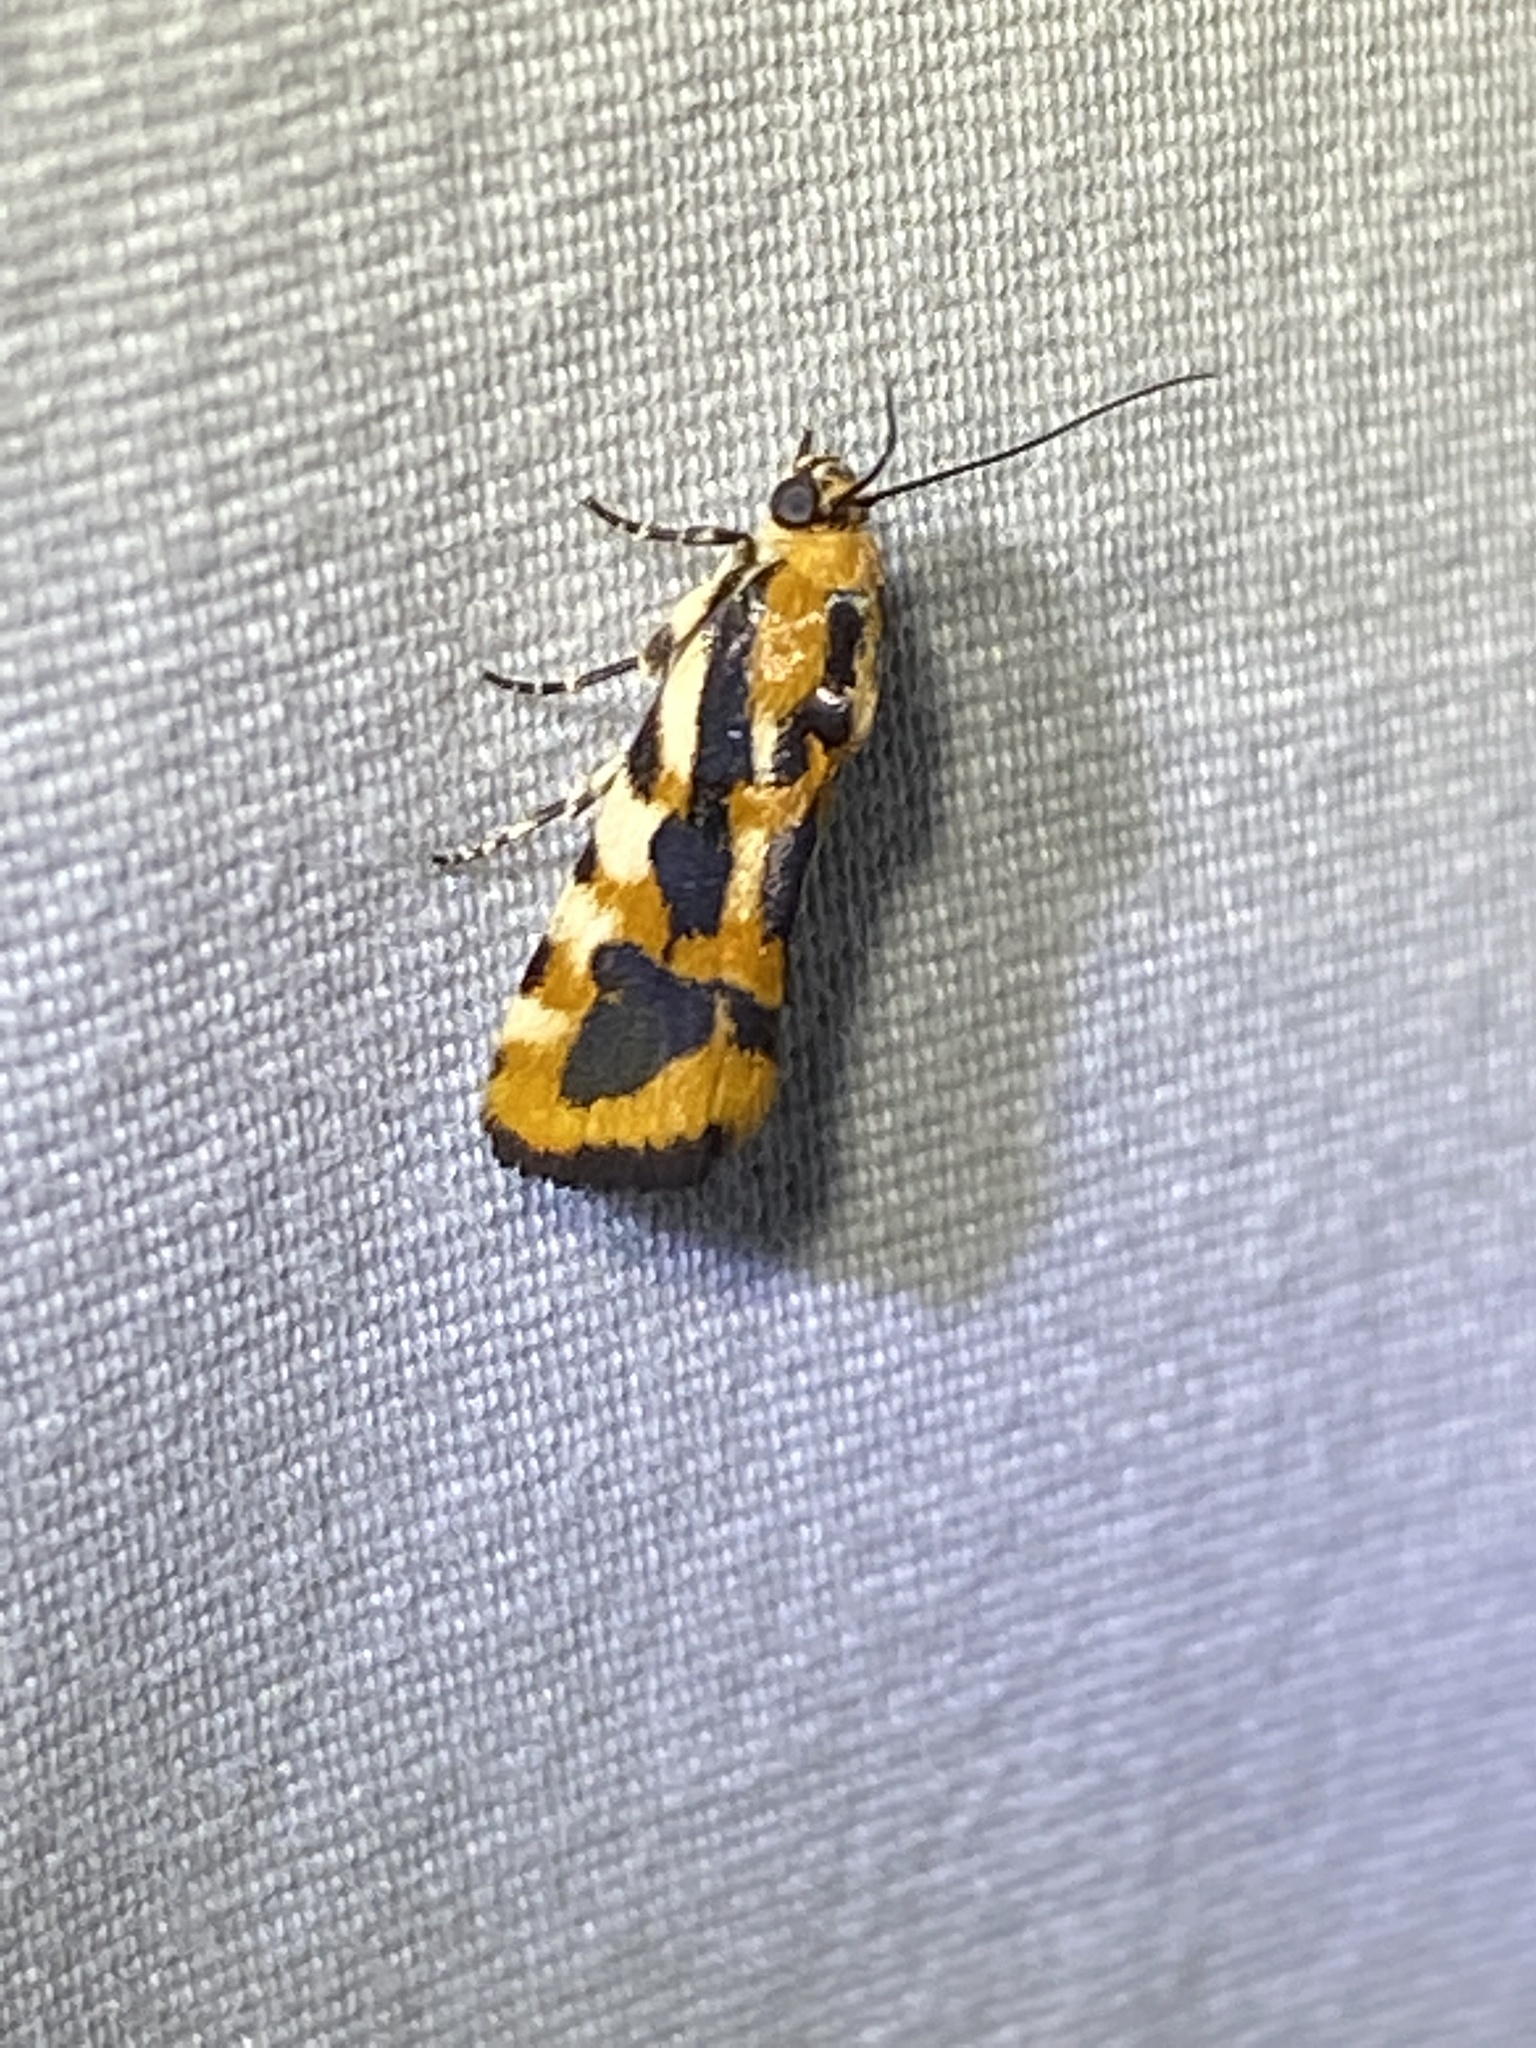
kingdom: Animalia
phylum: Arthropoda
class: Insecta
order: Lepidoptera
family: Noctuidae
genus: Acontia
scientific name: Acontia leo
